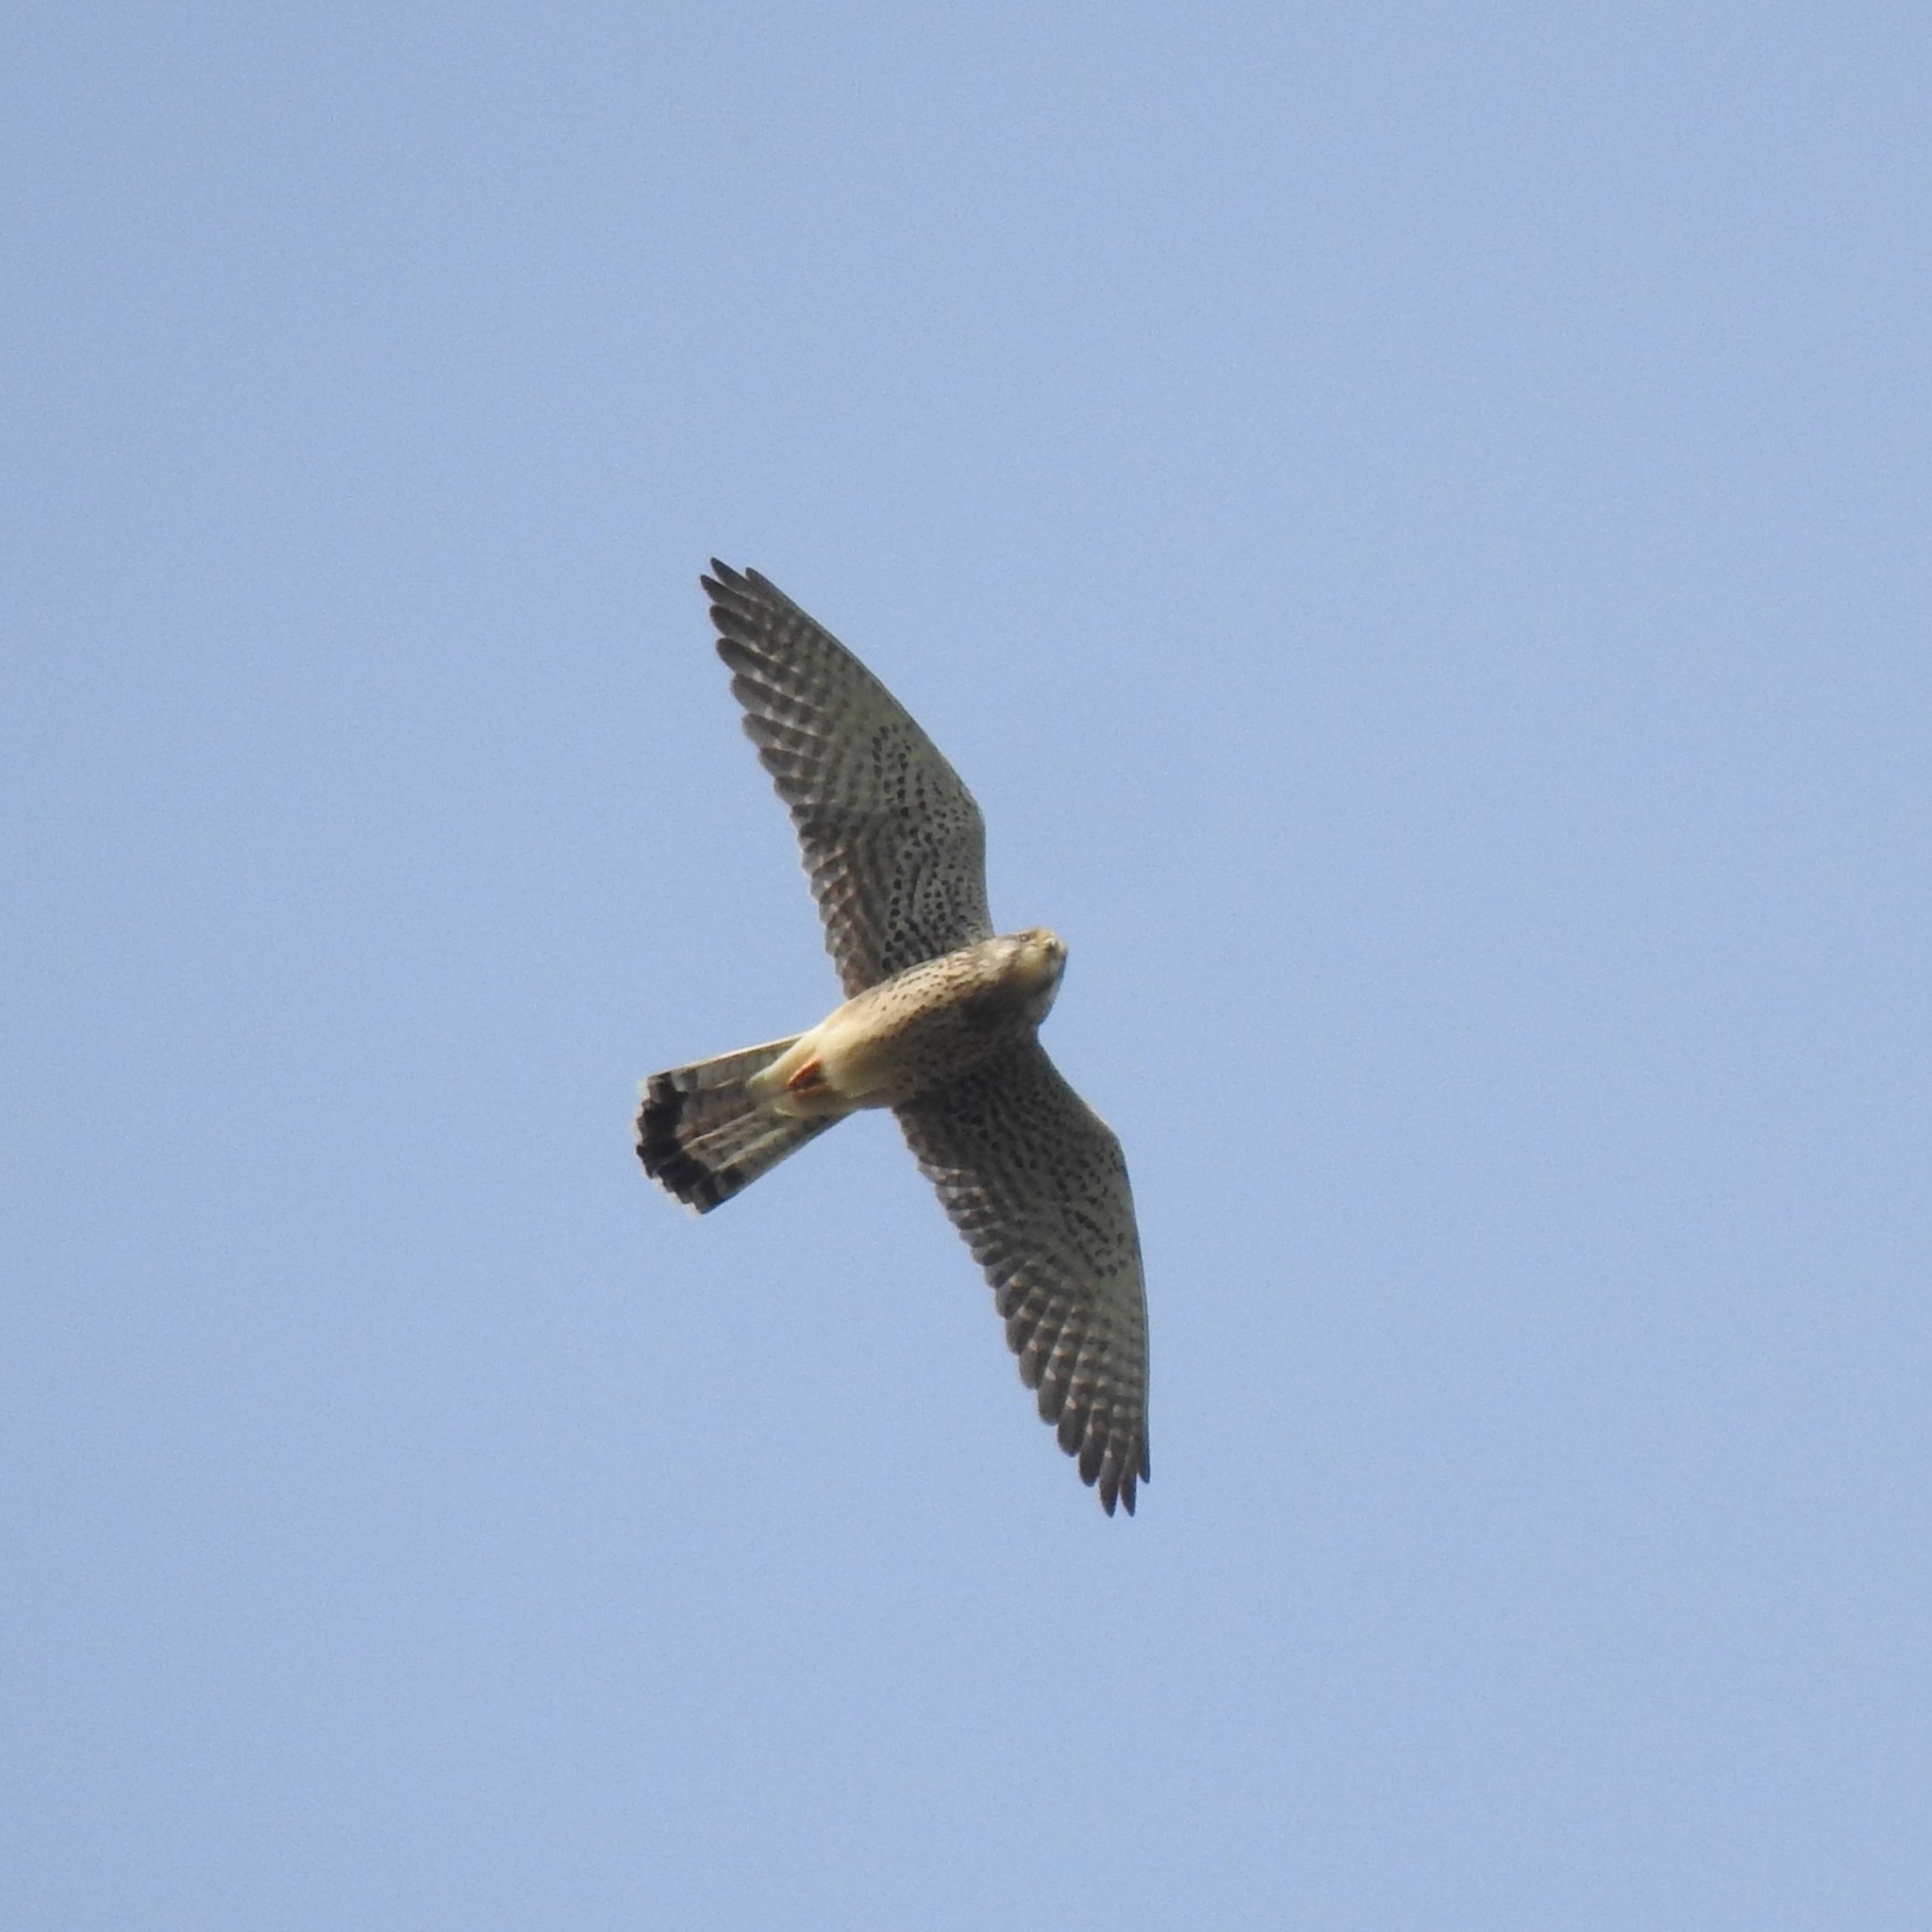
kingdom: Animalia
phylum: Chordata
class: Aves
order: Falconiformes
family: Falconidae
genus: Falco
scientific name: Falco tinnunculus
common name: Common kestrel
